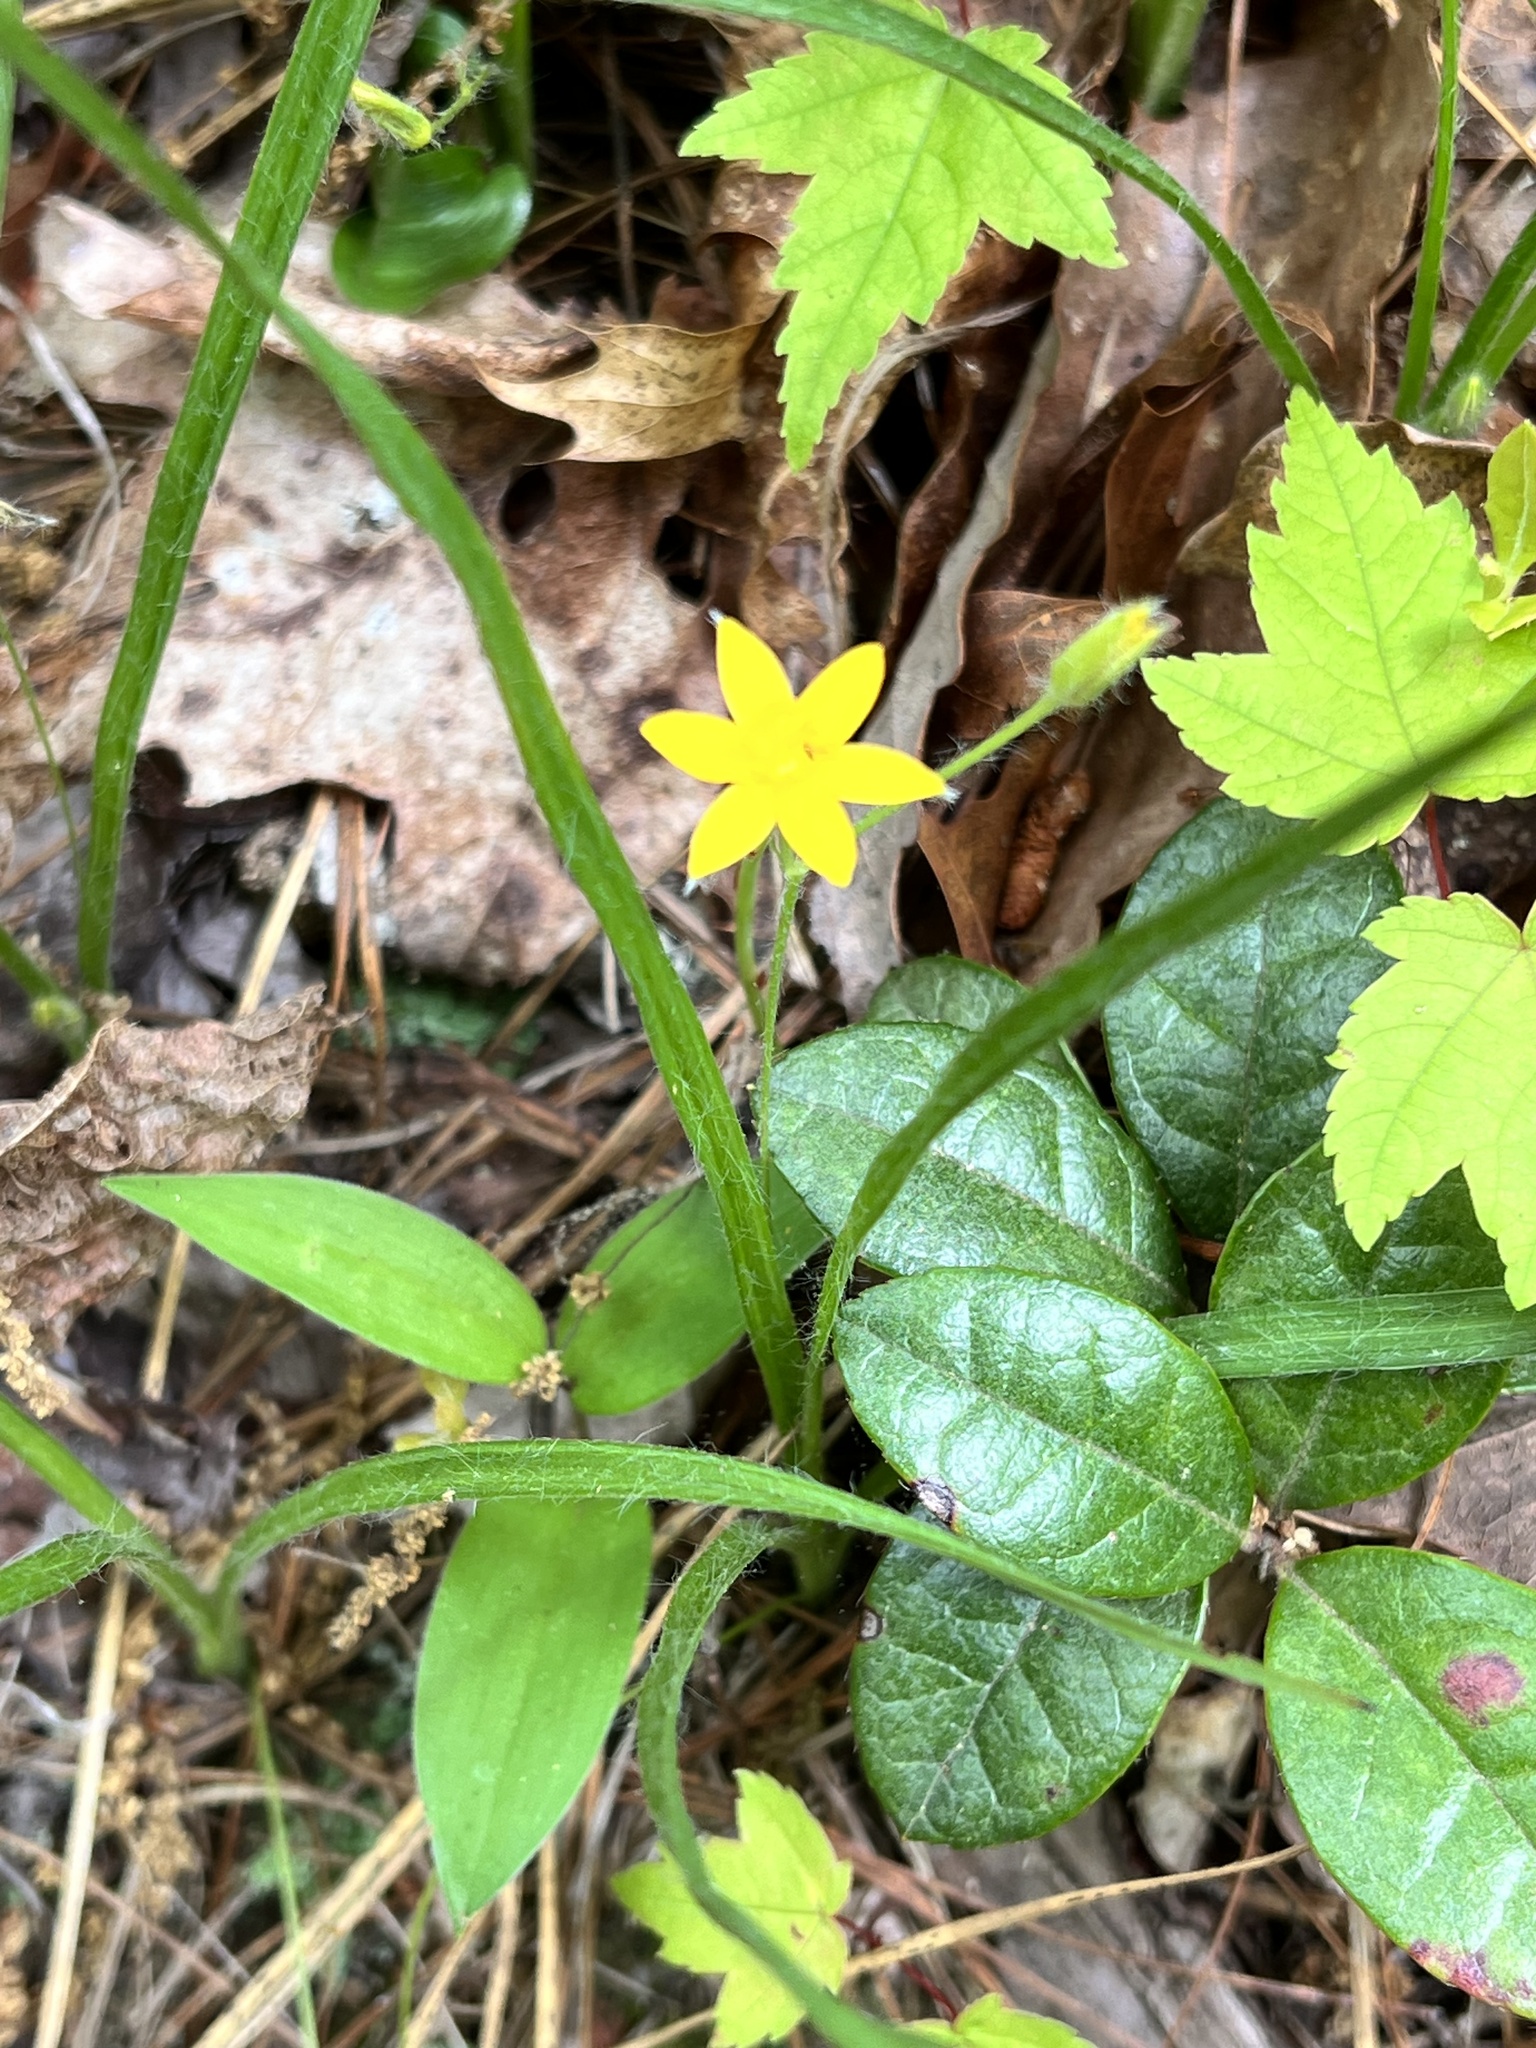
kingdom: Plantae
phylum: Tracheophyta
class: Liliopsida
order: Asparagales
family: Hypoxidaceae
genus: Hypoxis
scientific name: Hypoxis hirsuta
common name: Common goldstar
